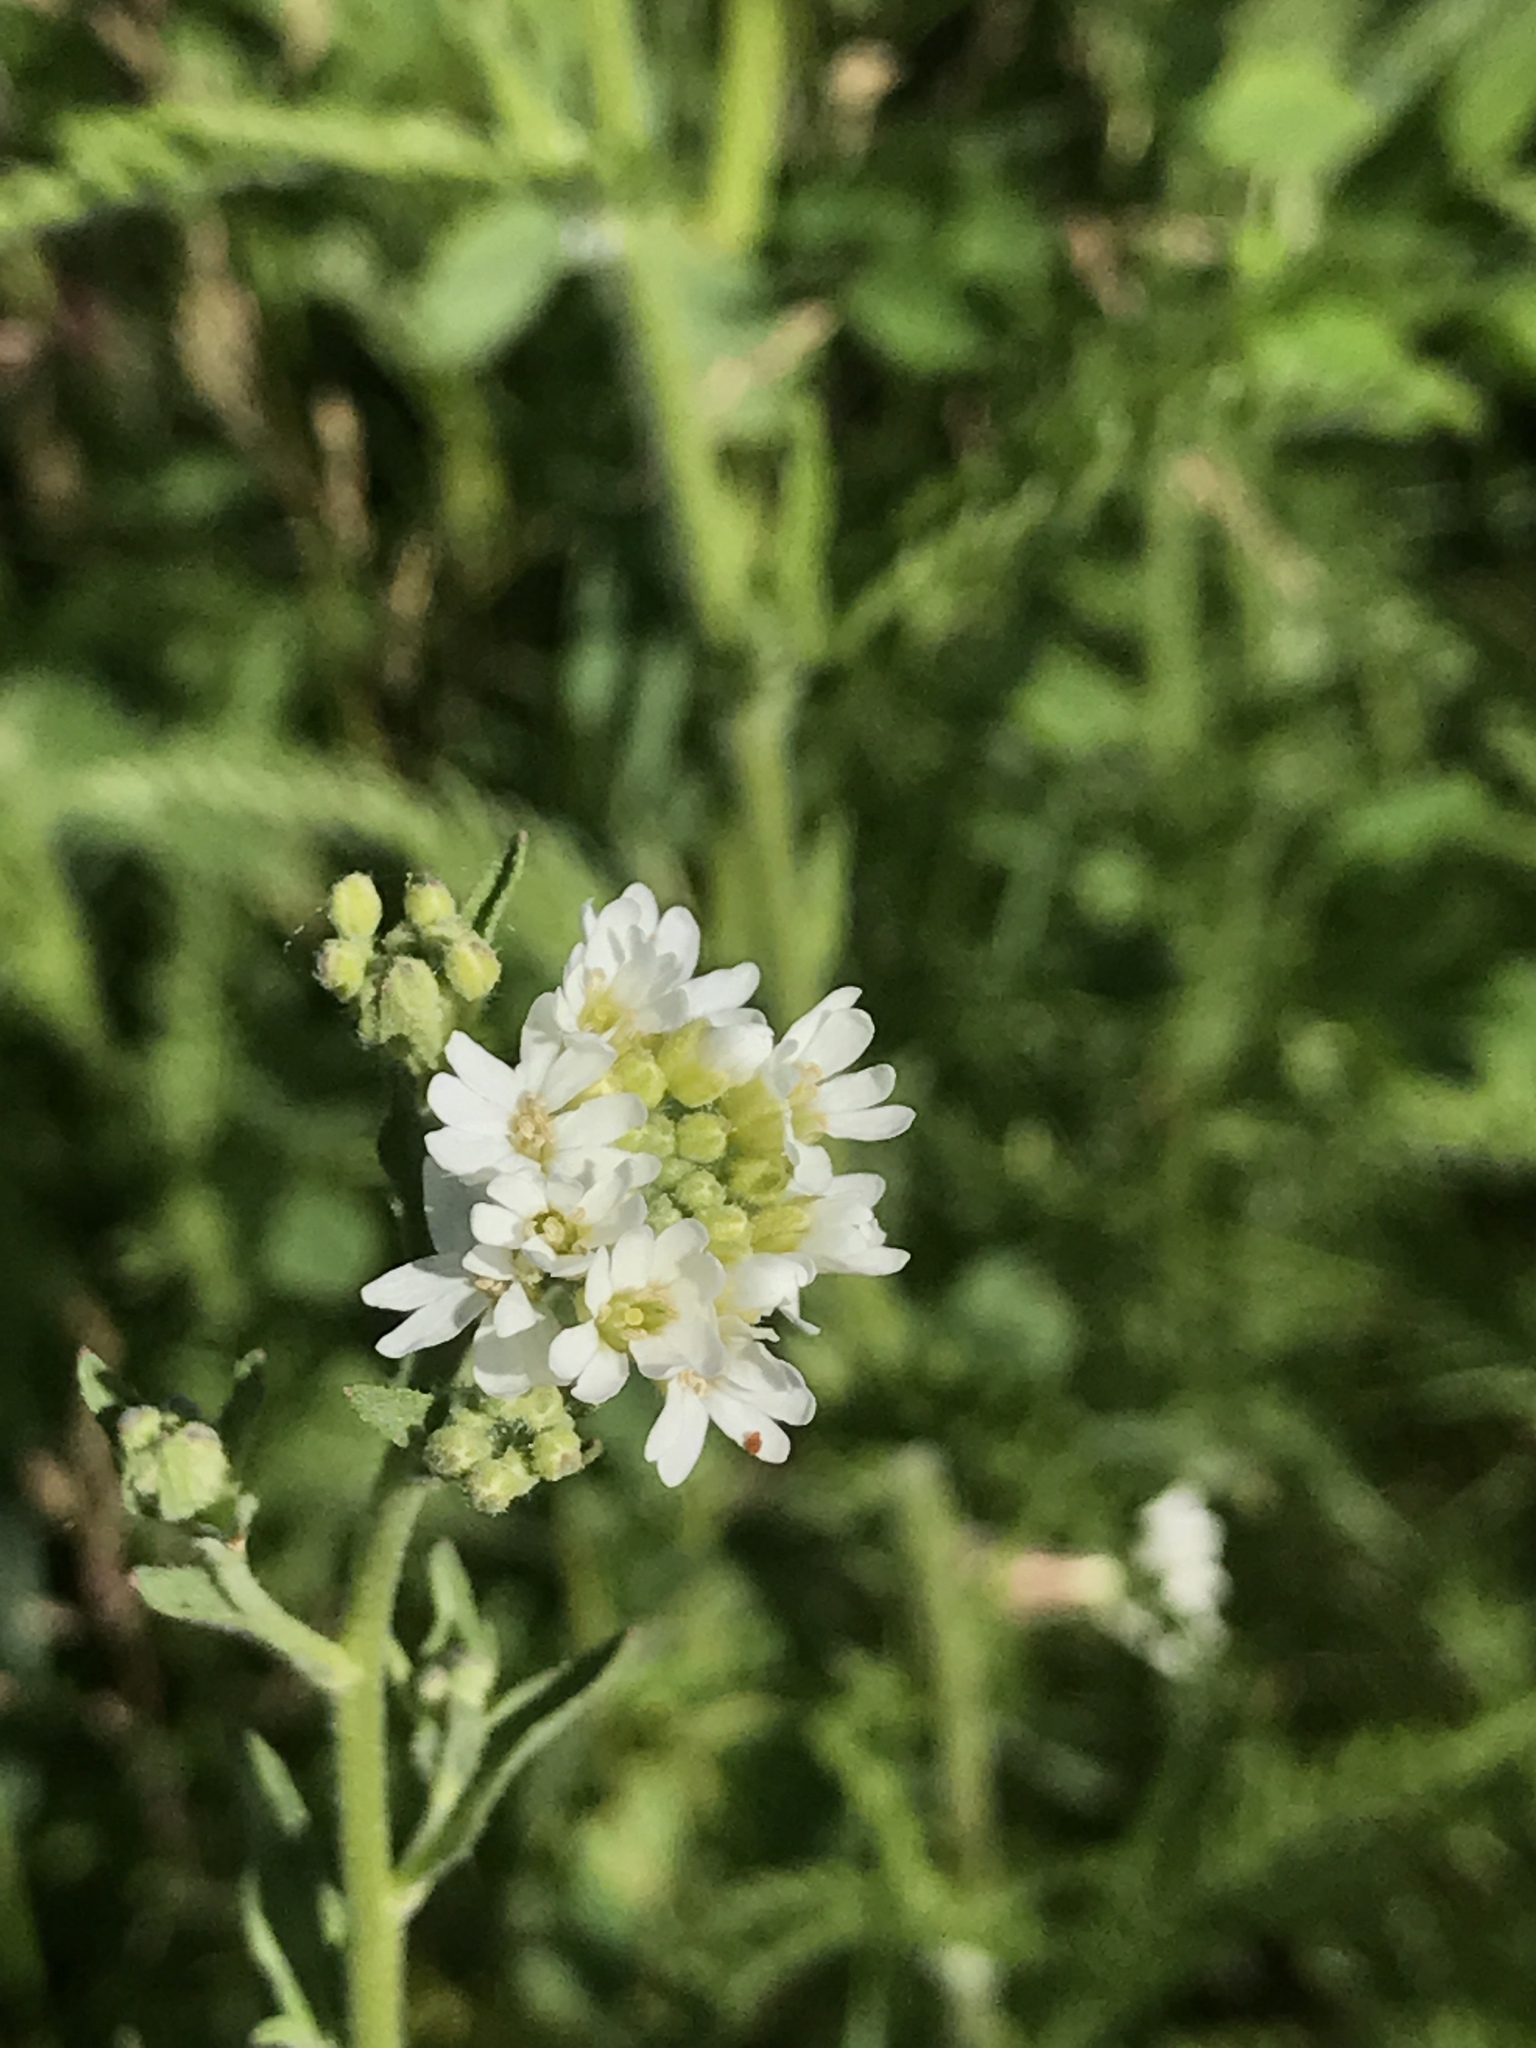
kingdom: Plantae
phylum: Tracheophyta
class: Magnoliopsida
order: Brassicales
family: Brassicaceae
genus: Berteroa
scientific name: Berteroa incana
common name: Hoary alison
